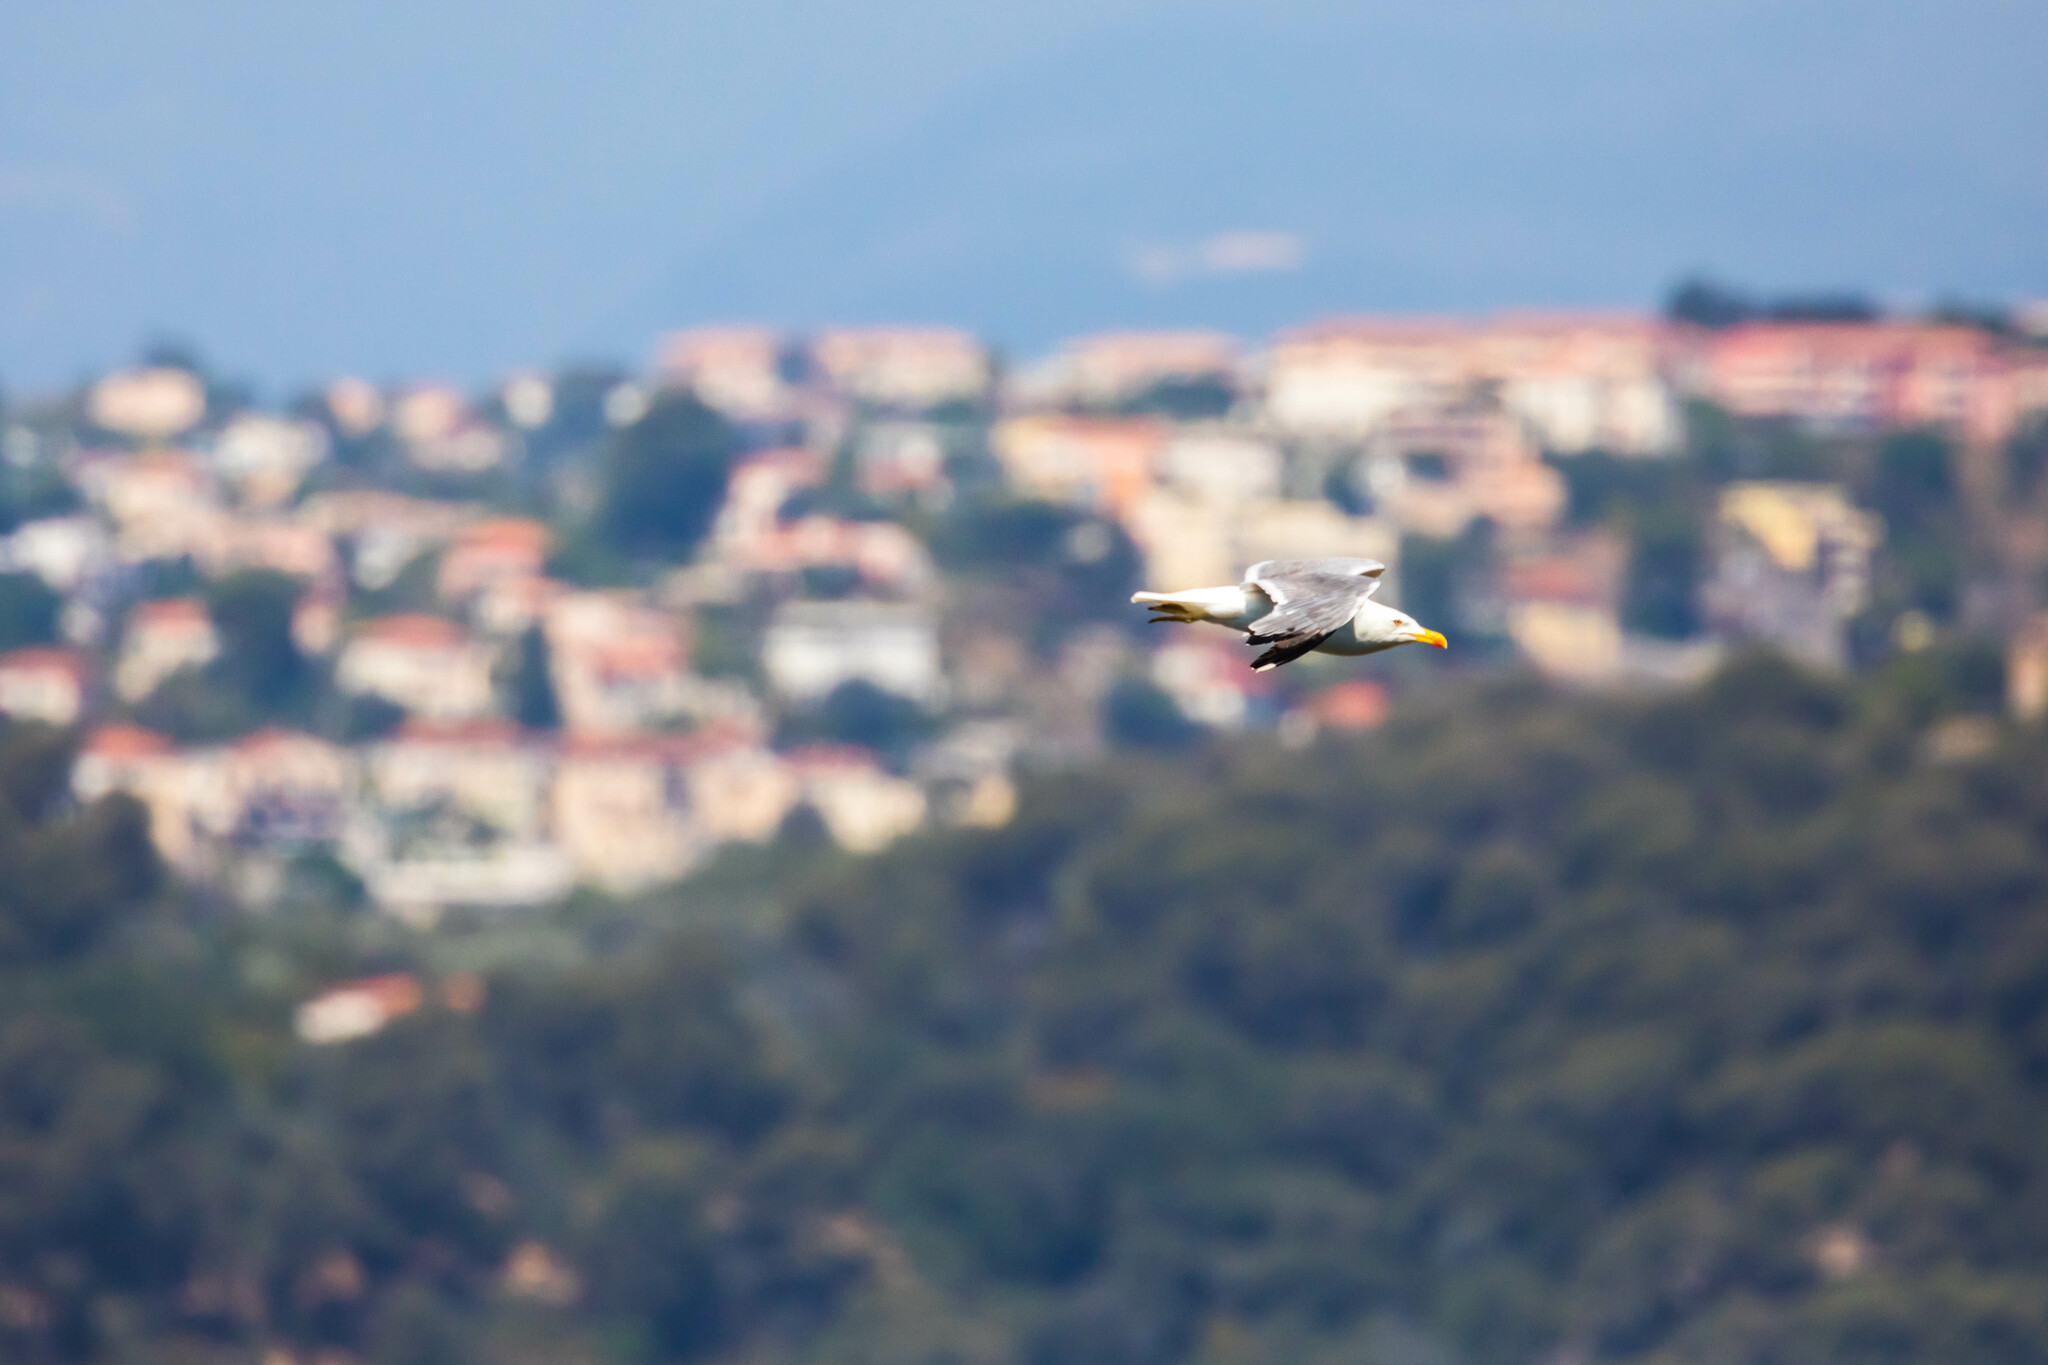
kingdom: Animalia
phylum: Chordata
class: Aves
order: Charadriiformes
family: Laridae
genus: Larus
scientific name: Larus michahellis
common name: Yellow-legged gull
